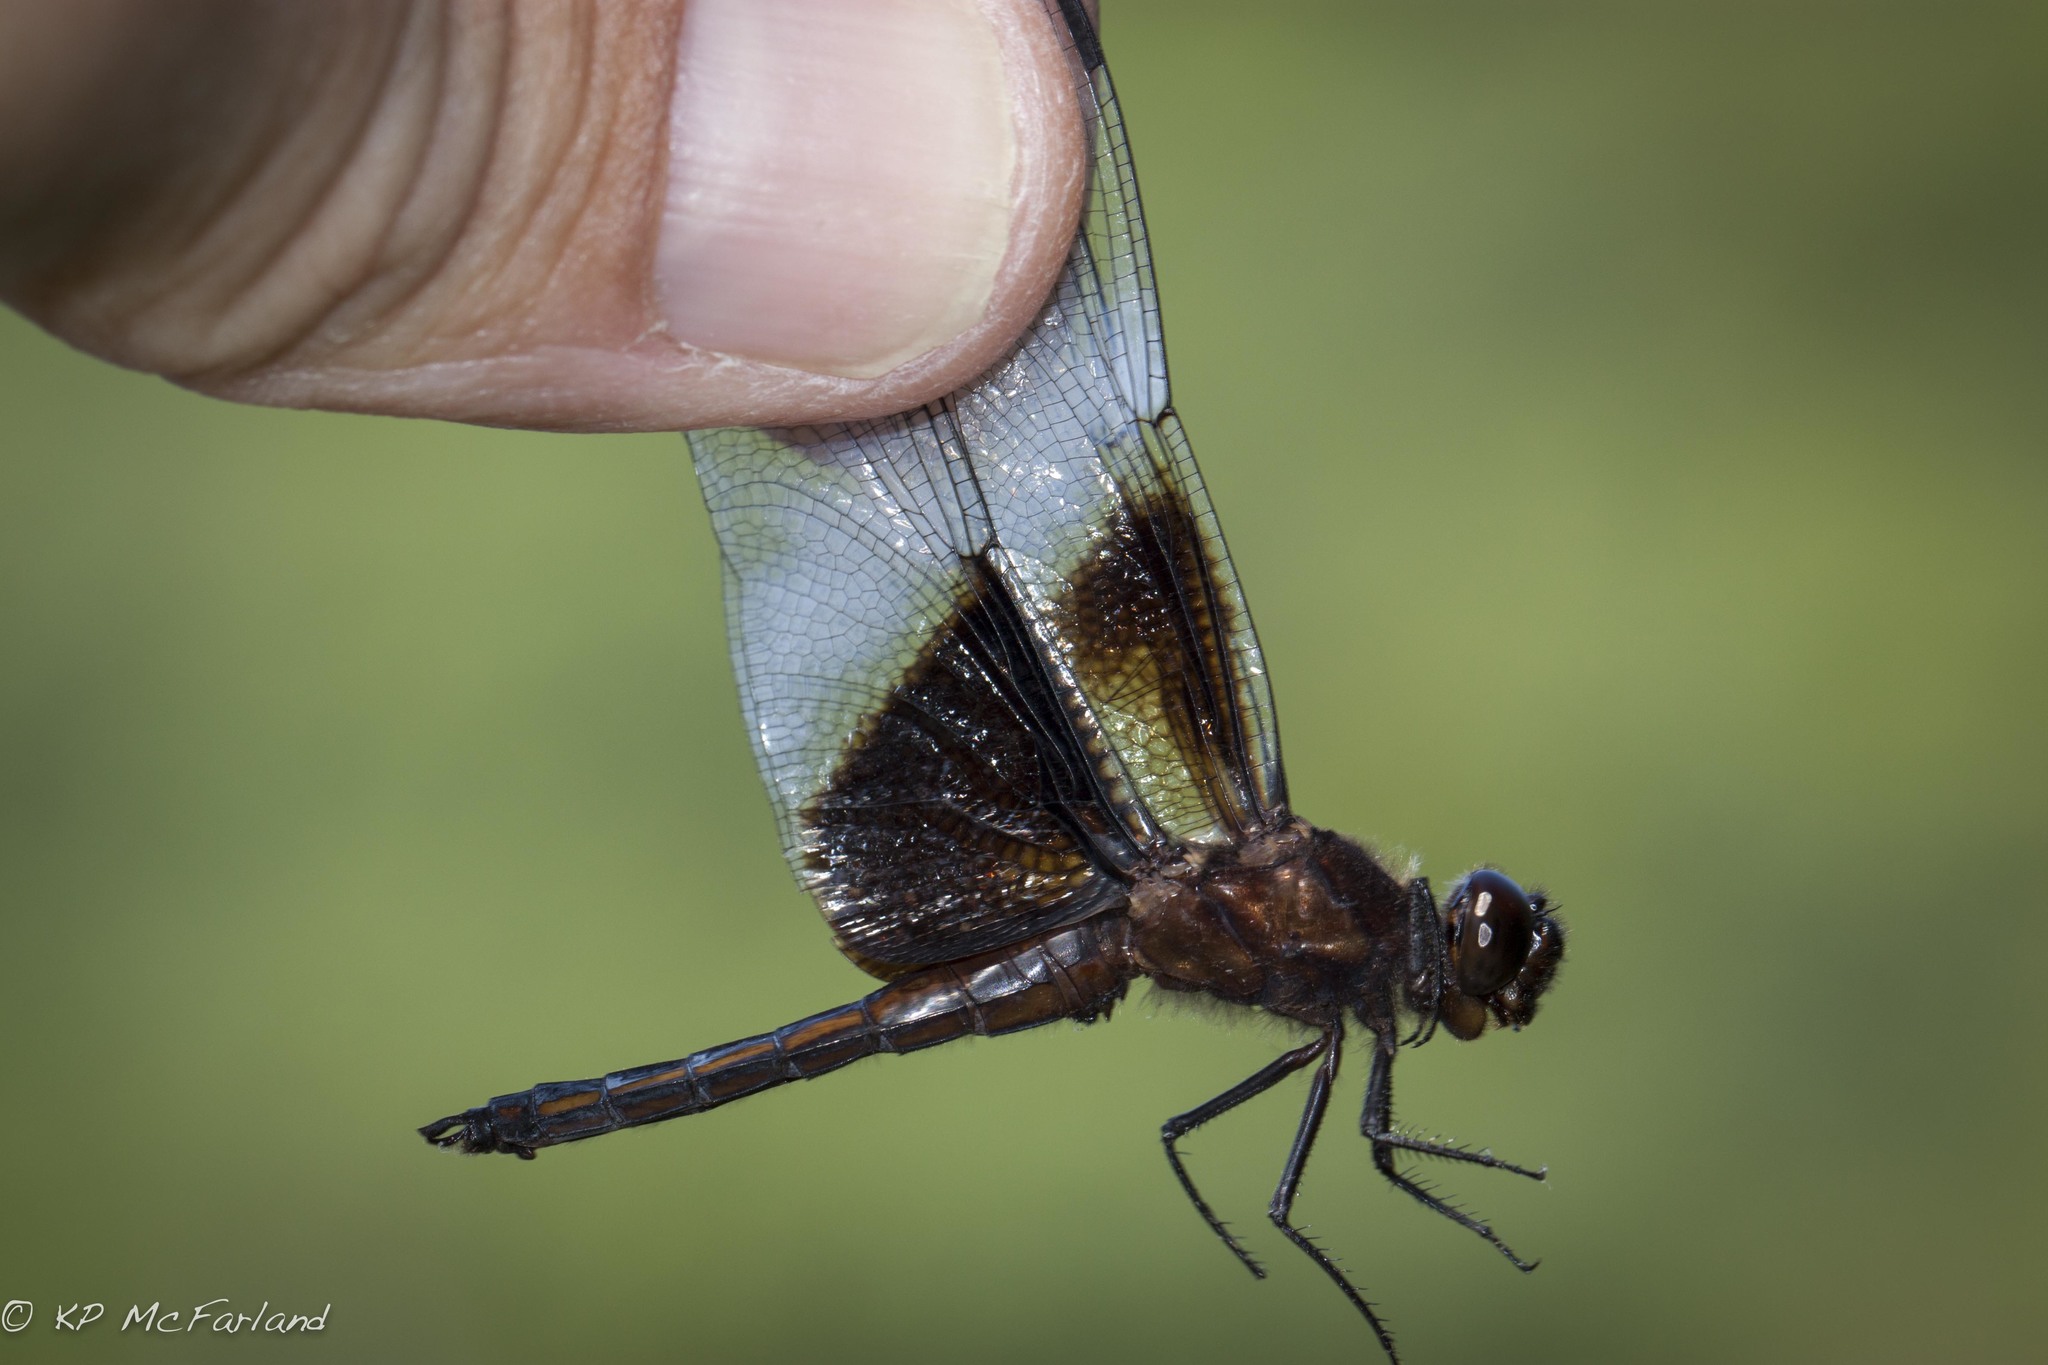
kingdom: Animalia
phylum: Arthropoda
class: Insecta
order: Odonata
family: Libellulidae
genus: Libellula
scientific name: Libellula luctuosa
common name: Widow skimmer
